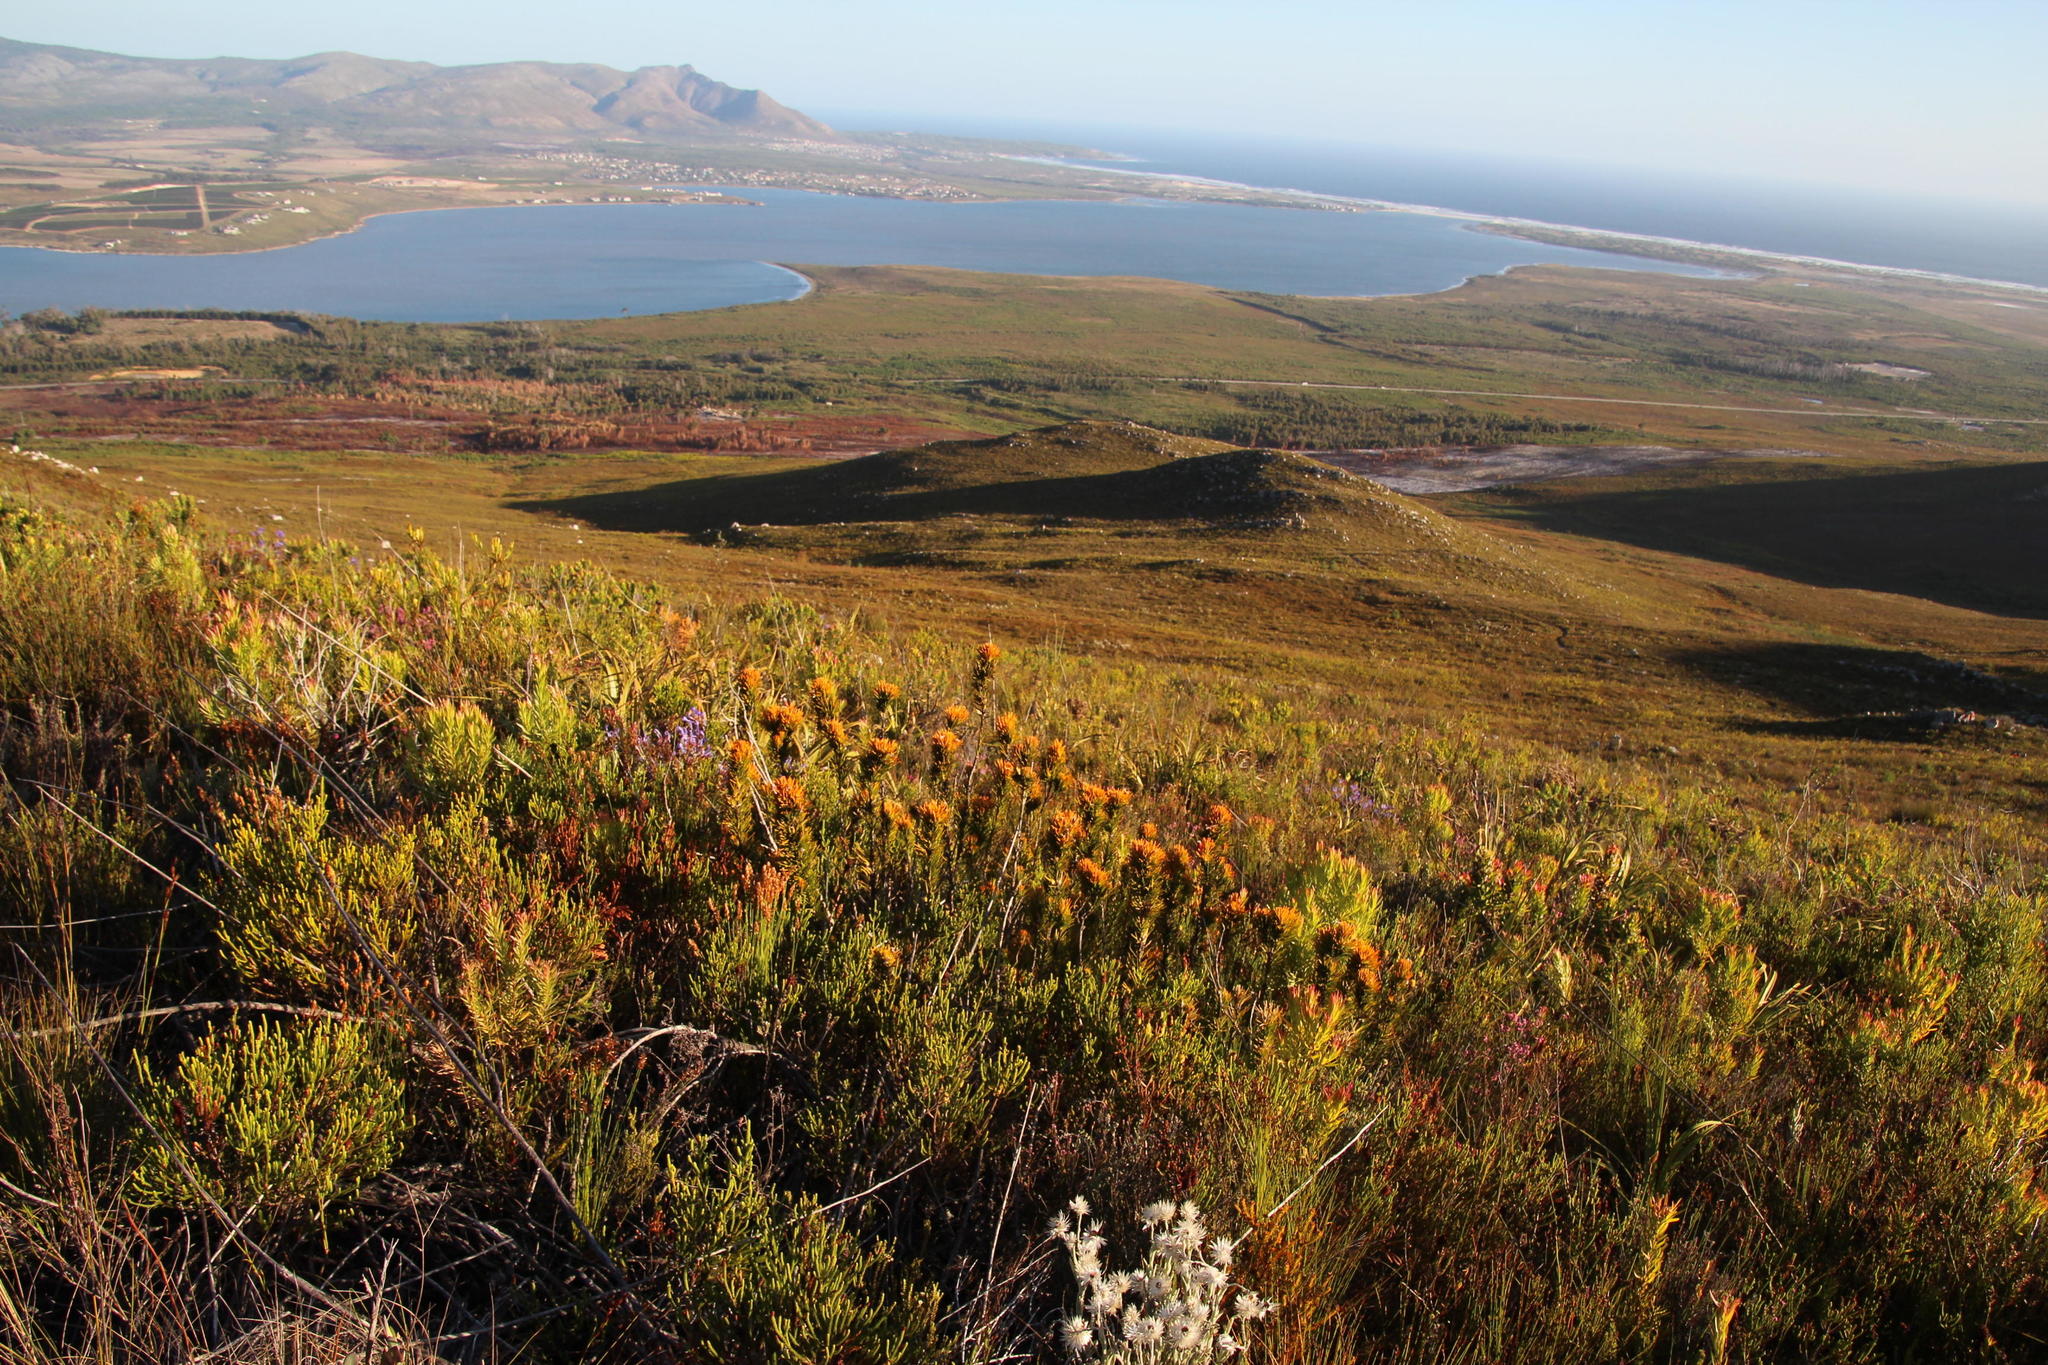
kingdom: Plantae
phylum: Tracheophyta
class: Magnoliopsida
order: Lamiales
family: Stilbaceae
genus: Retzia
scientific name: Retzia capensis
